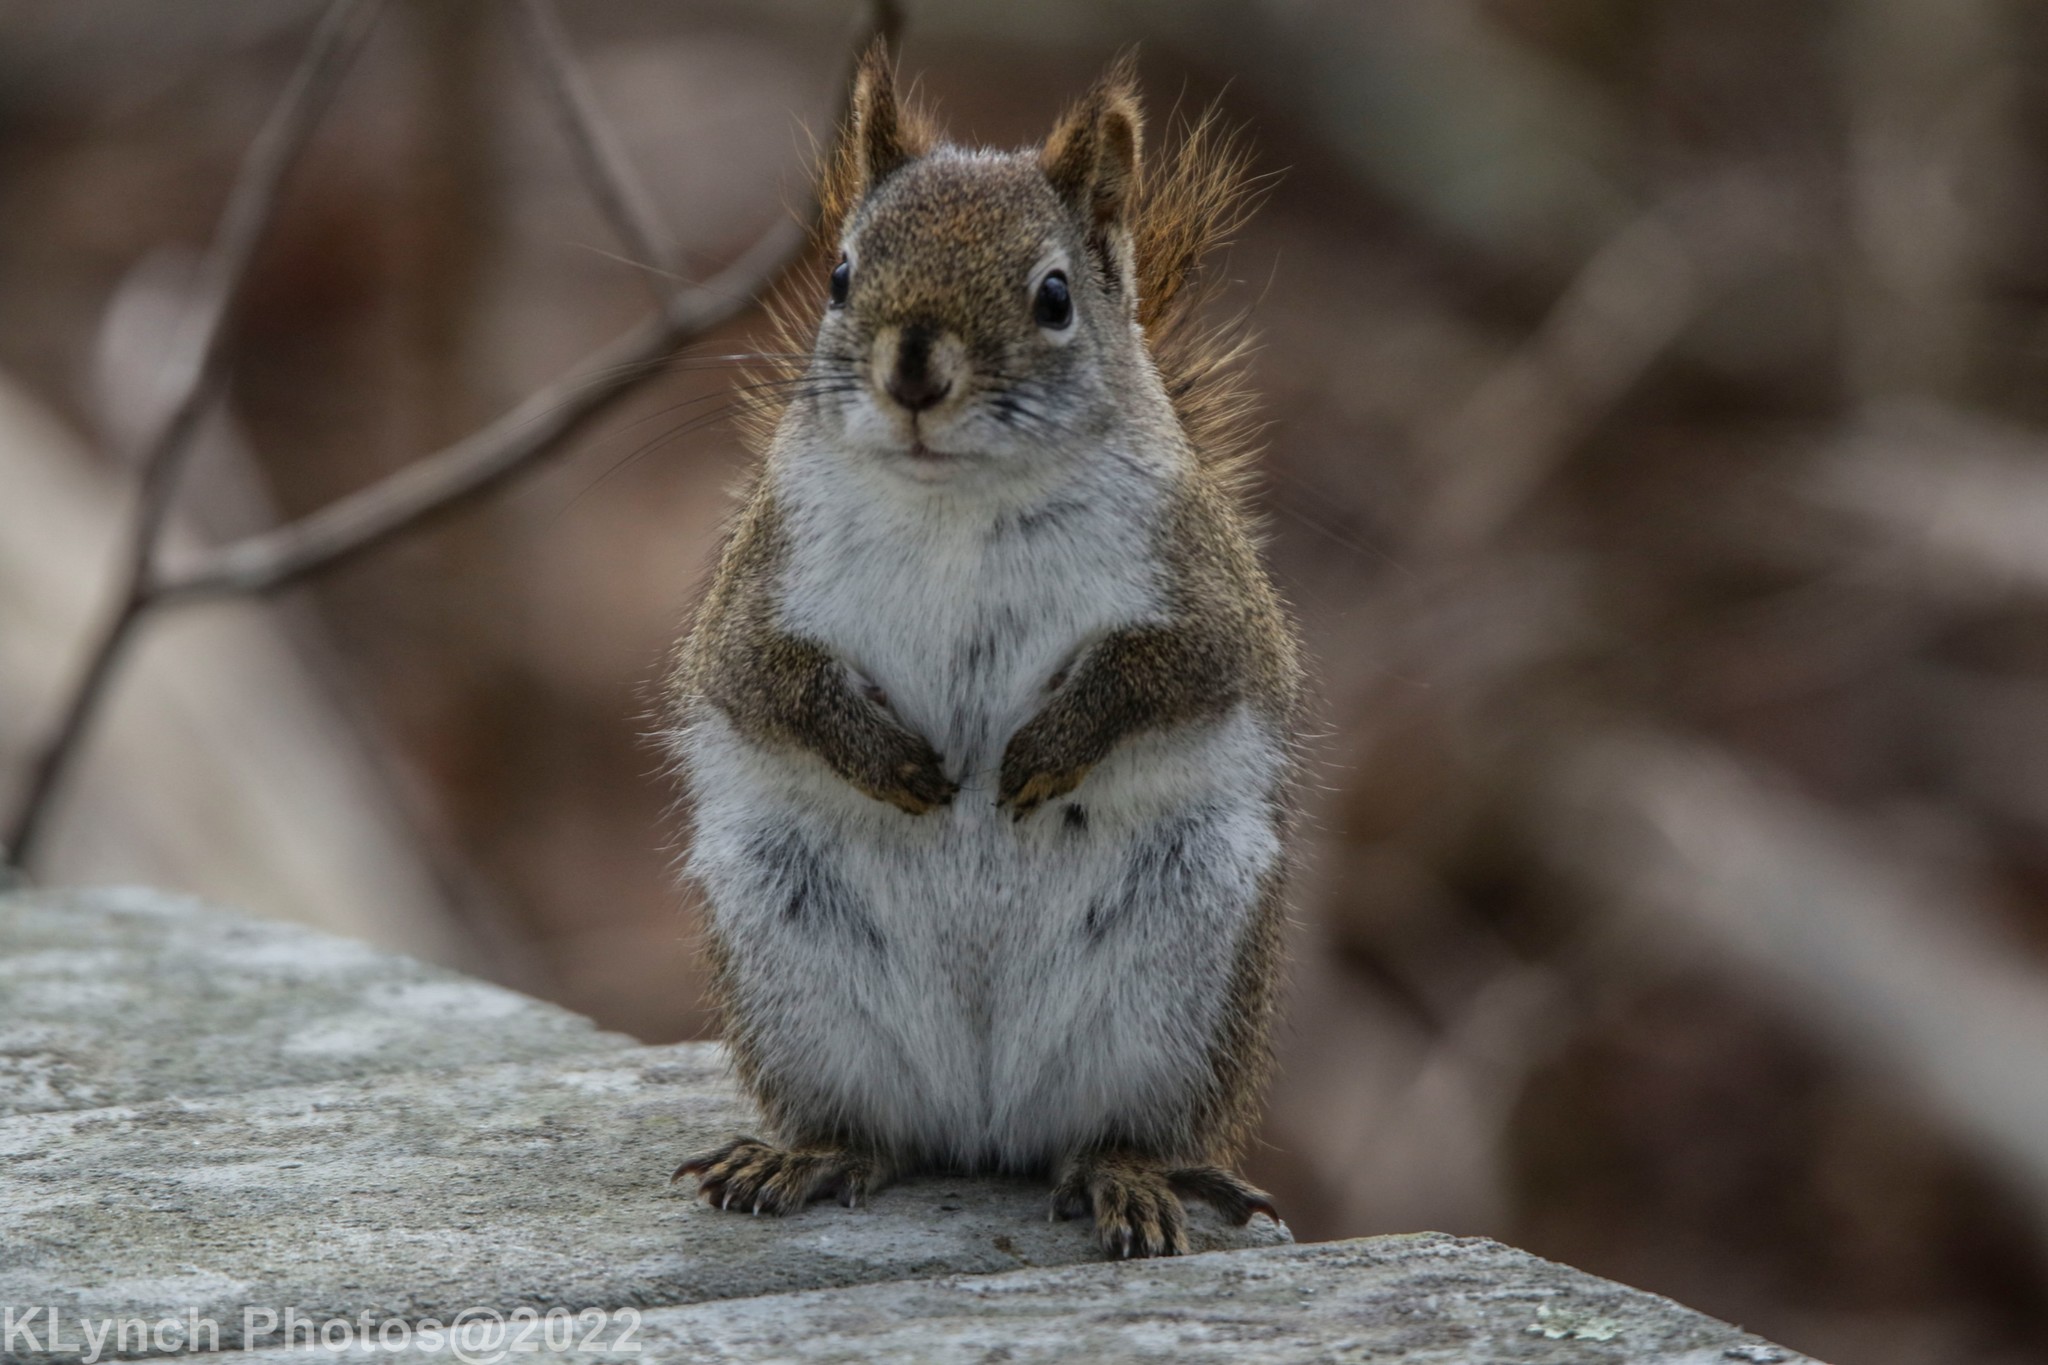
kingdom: Animalia
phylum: Chordata
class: Mammalia
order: Rodentia
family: Sciuridae
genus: Tamiasciurus
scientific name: Tamiasciurus hudsonicus
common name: Red squirrel
